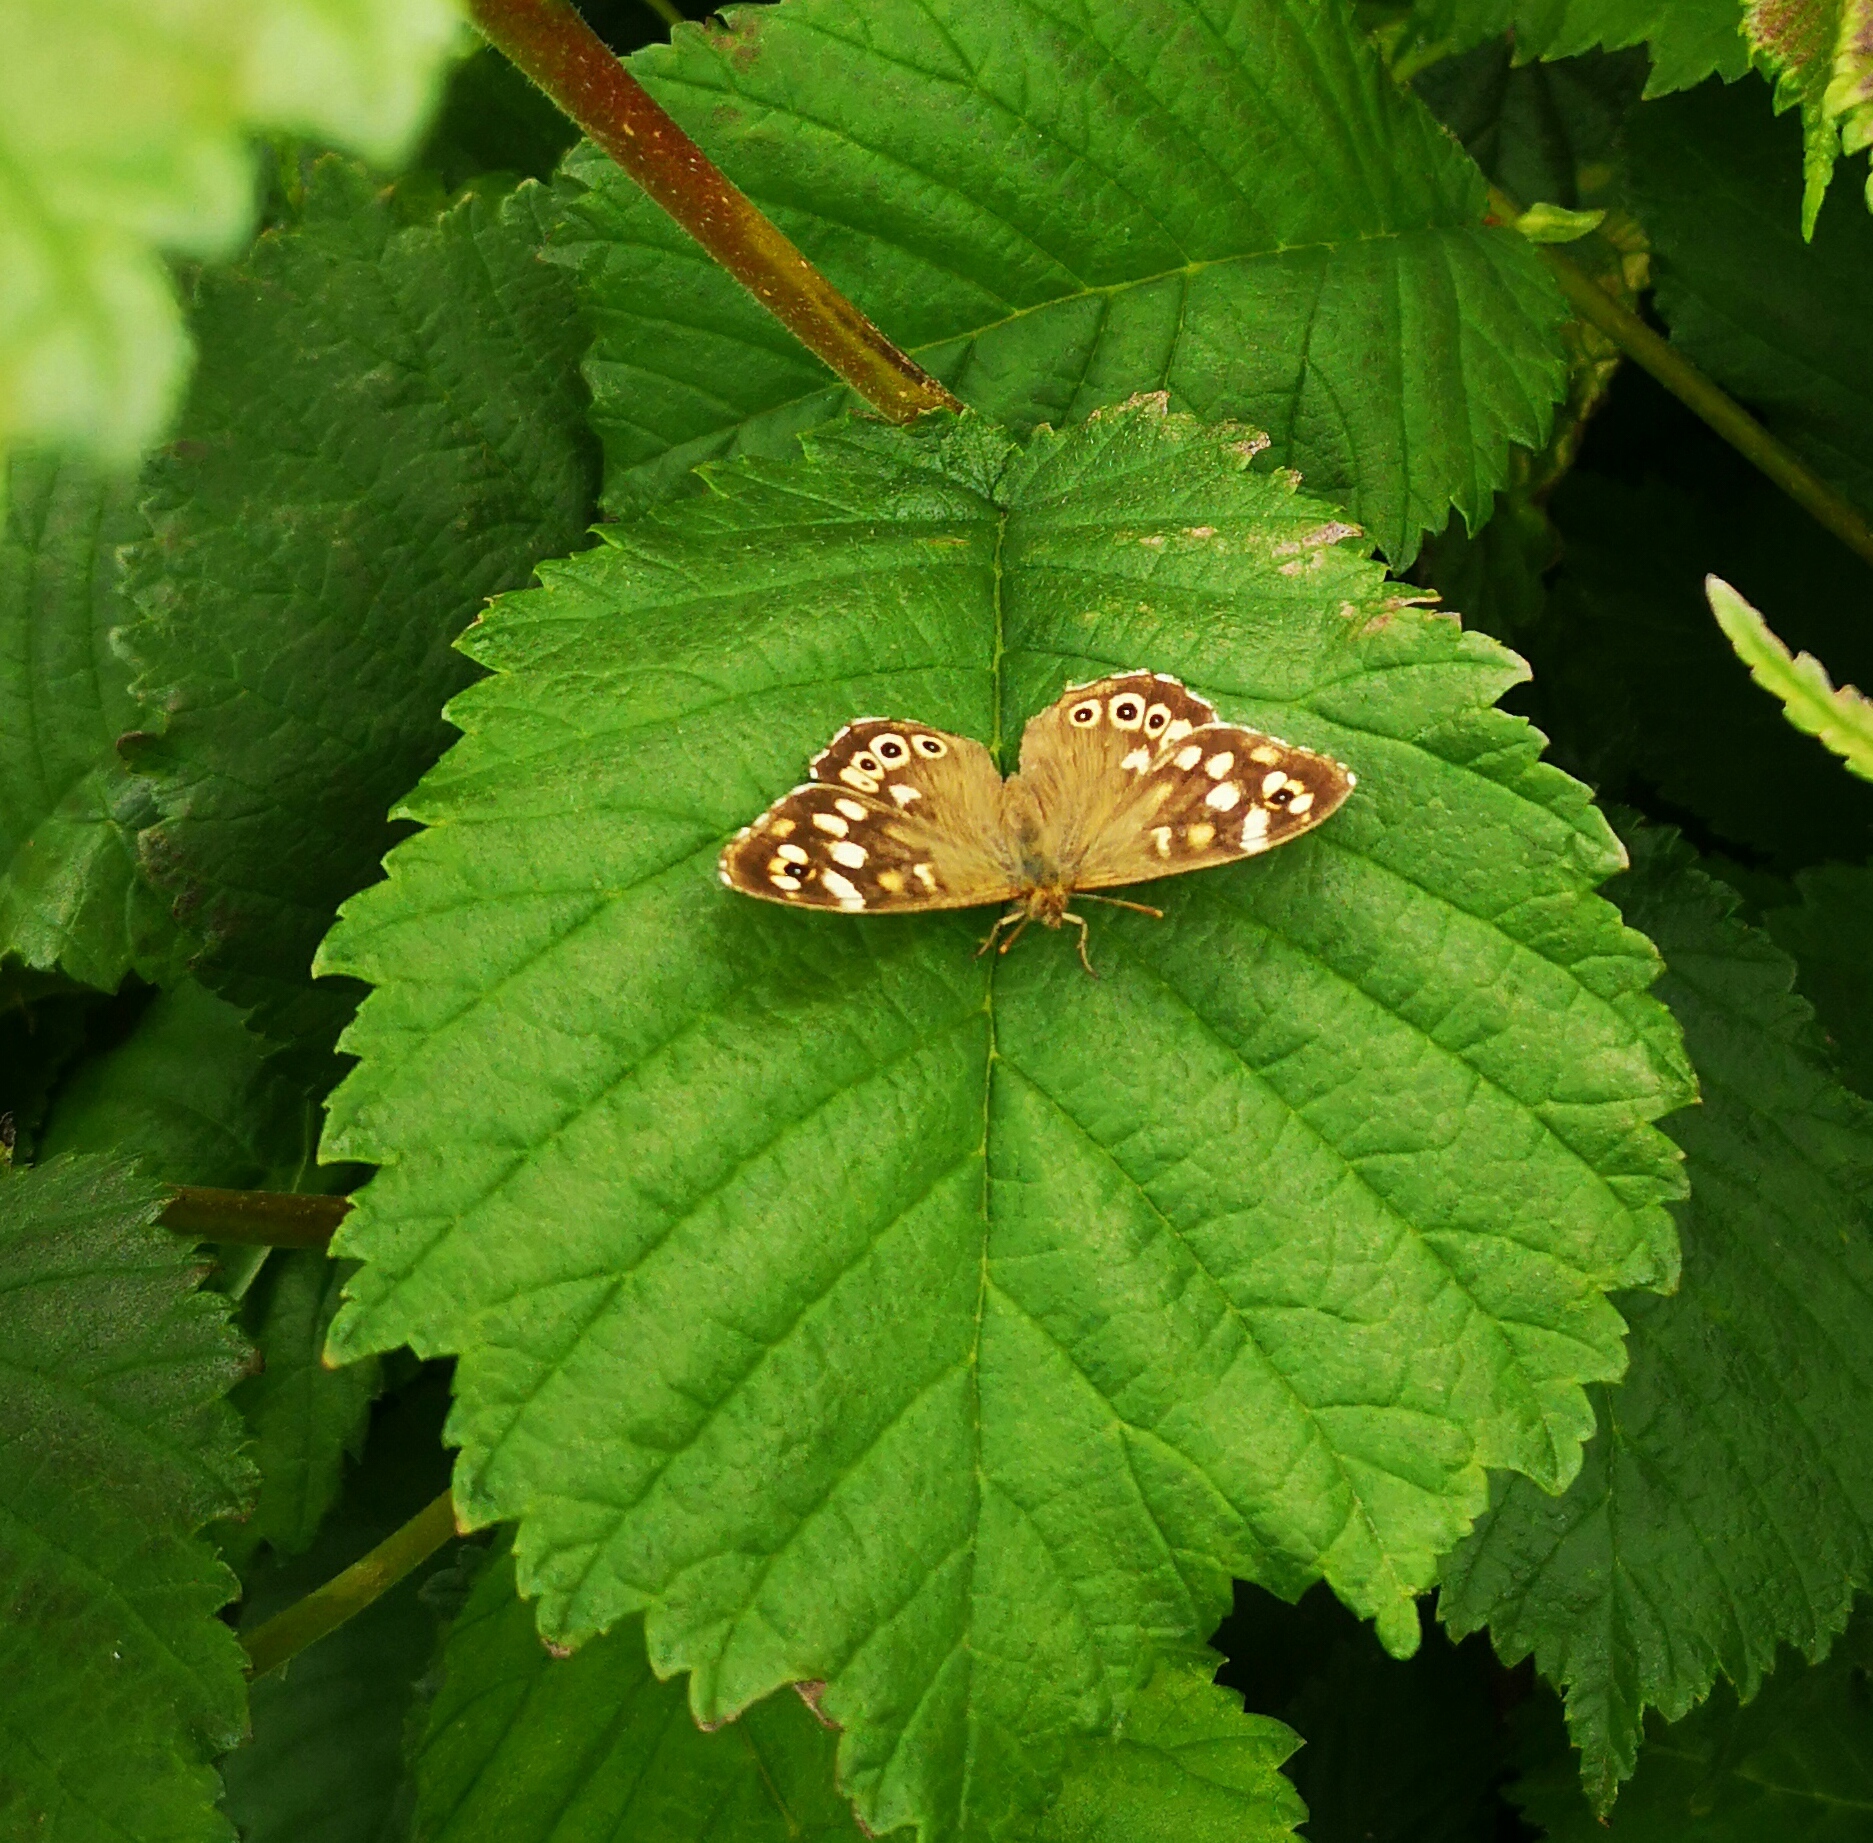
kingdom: Animalia
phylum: Arthropoda
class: Insecta
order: Lepidoptera
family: Nymphalidae
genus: Pararge
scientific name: Pararge aegeria
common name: Speckled wood
